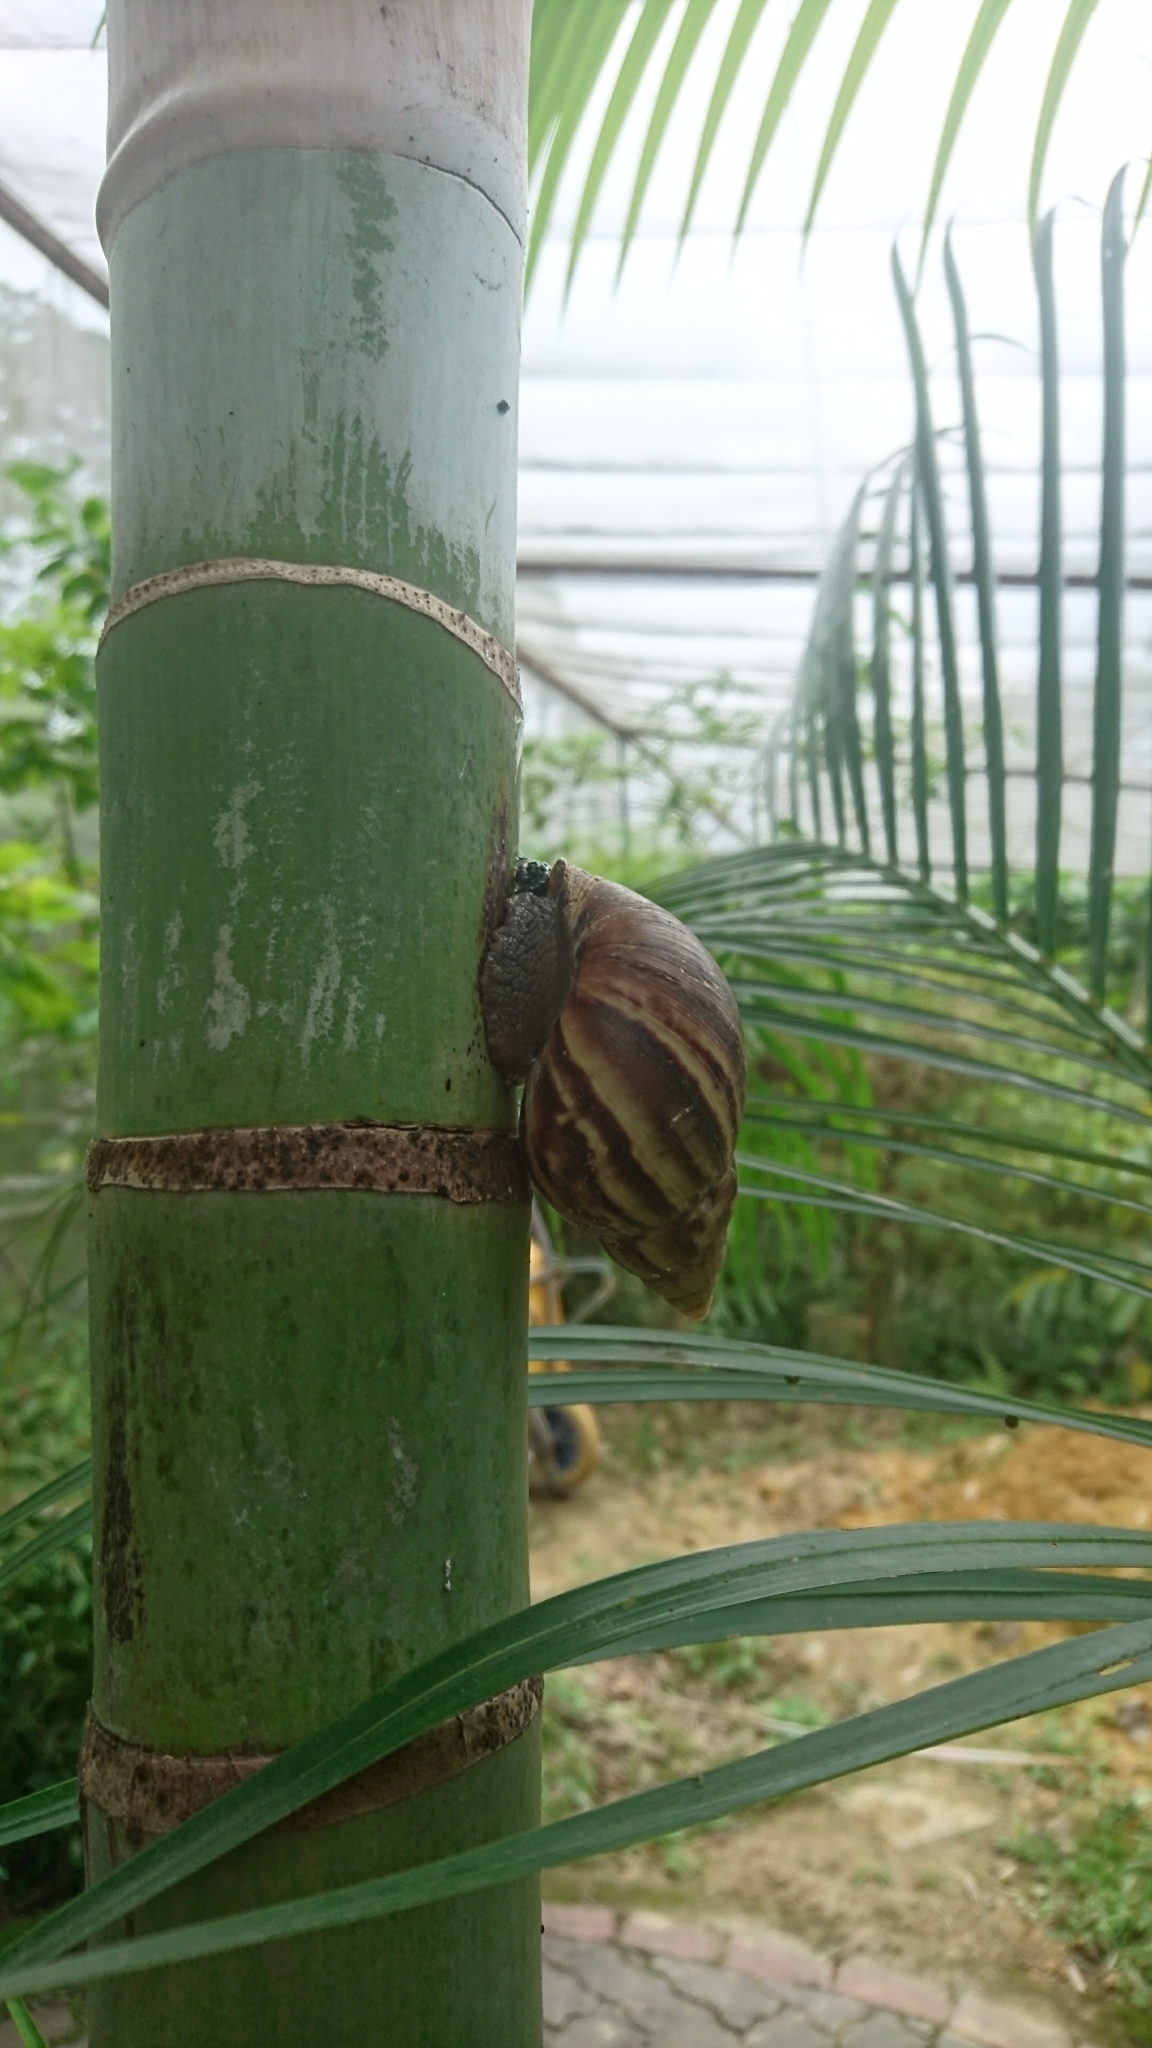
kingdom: Animalia
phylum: Mollusca
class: Gastropoda
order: Stylommatophora
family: Achatinidae
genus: Lissachatina
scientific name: Lissachatina fulica
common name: Giant african snail
